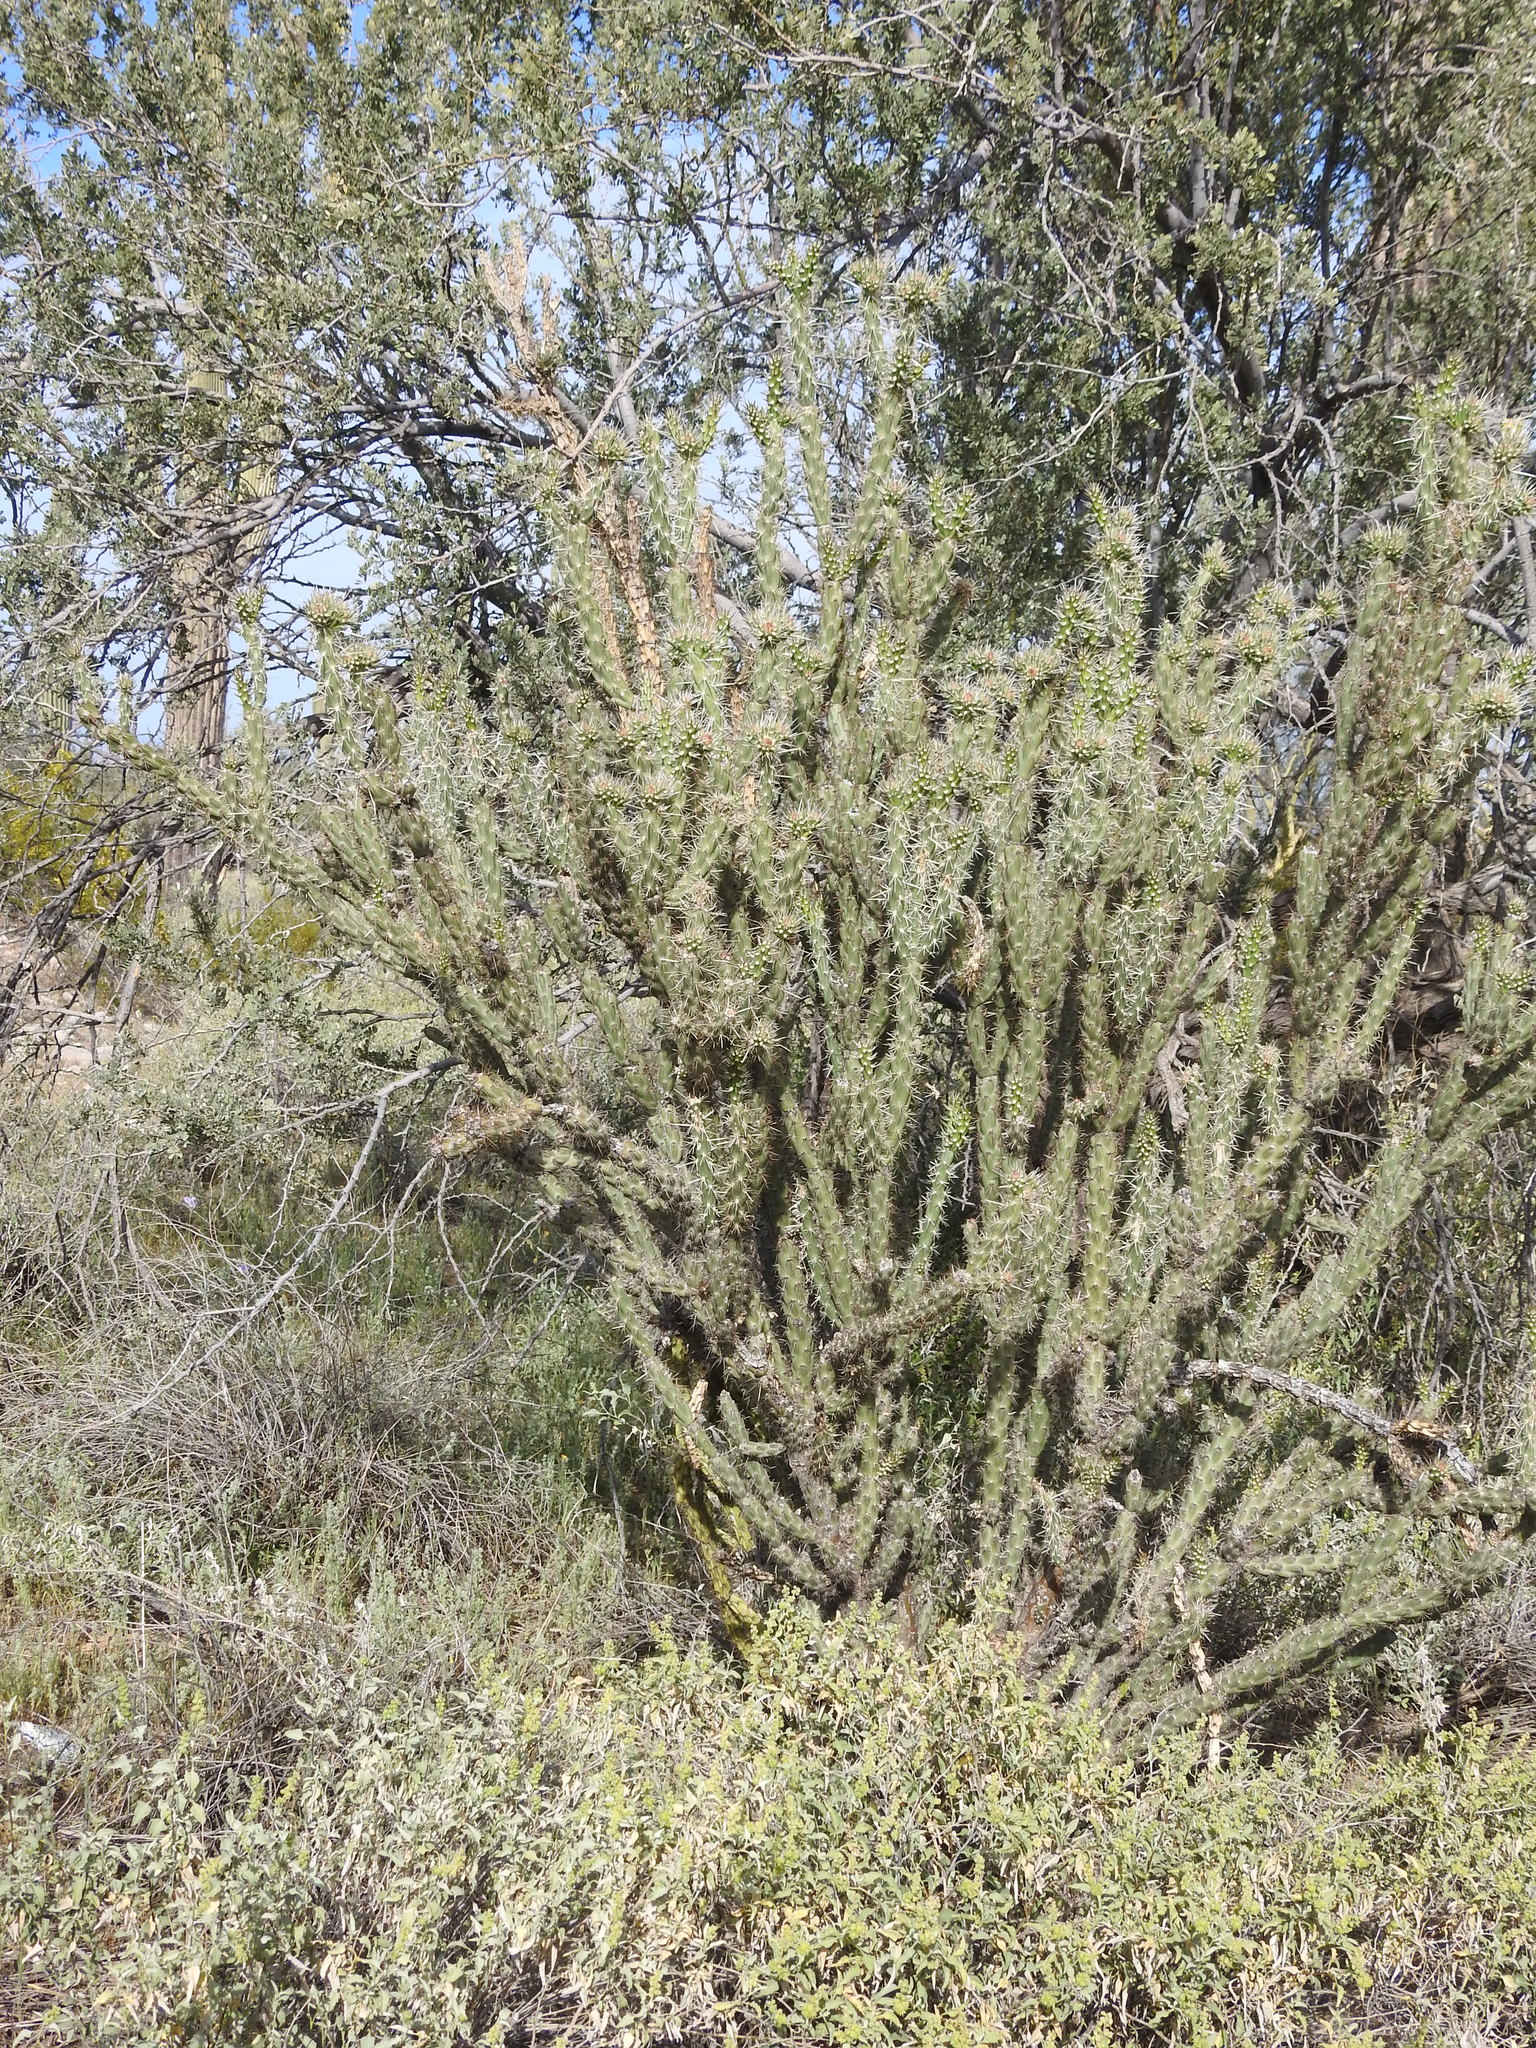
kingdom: Plantae
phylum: Tracheophyta
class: Magnoliopsida
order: Caryophyllales
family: Cactaceae
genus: Cylindropuntia
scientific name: Cylindropuntia acanthocarpa
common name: Buckhorn cholla
